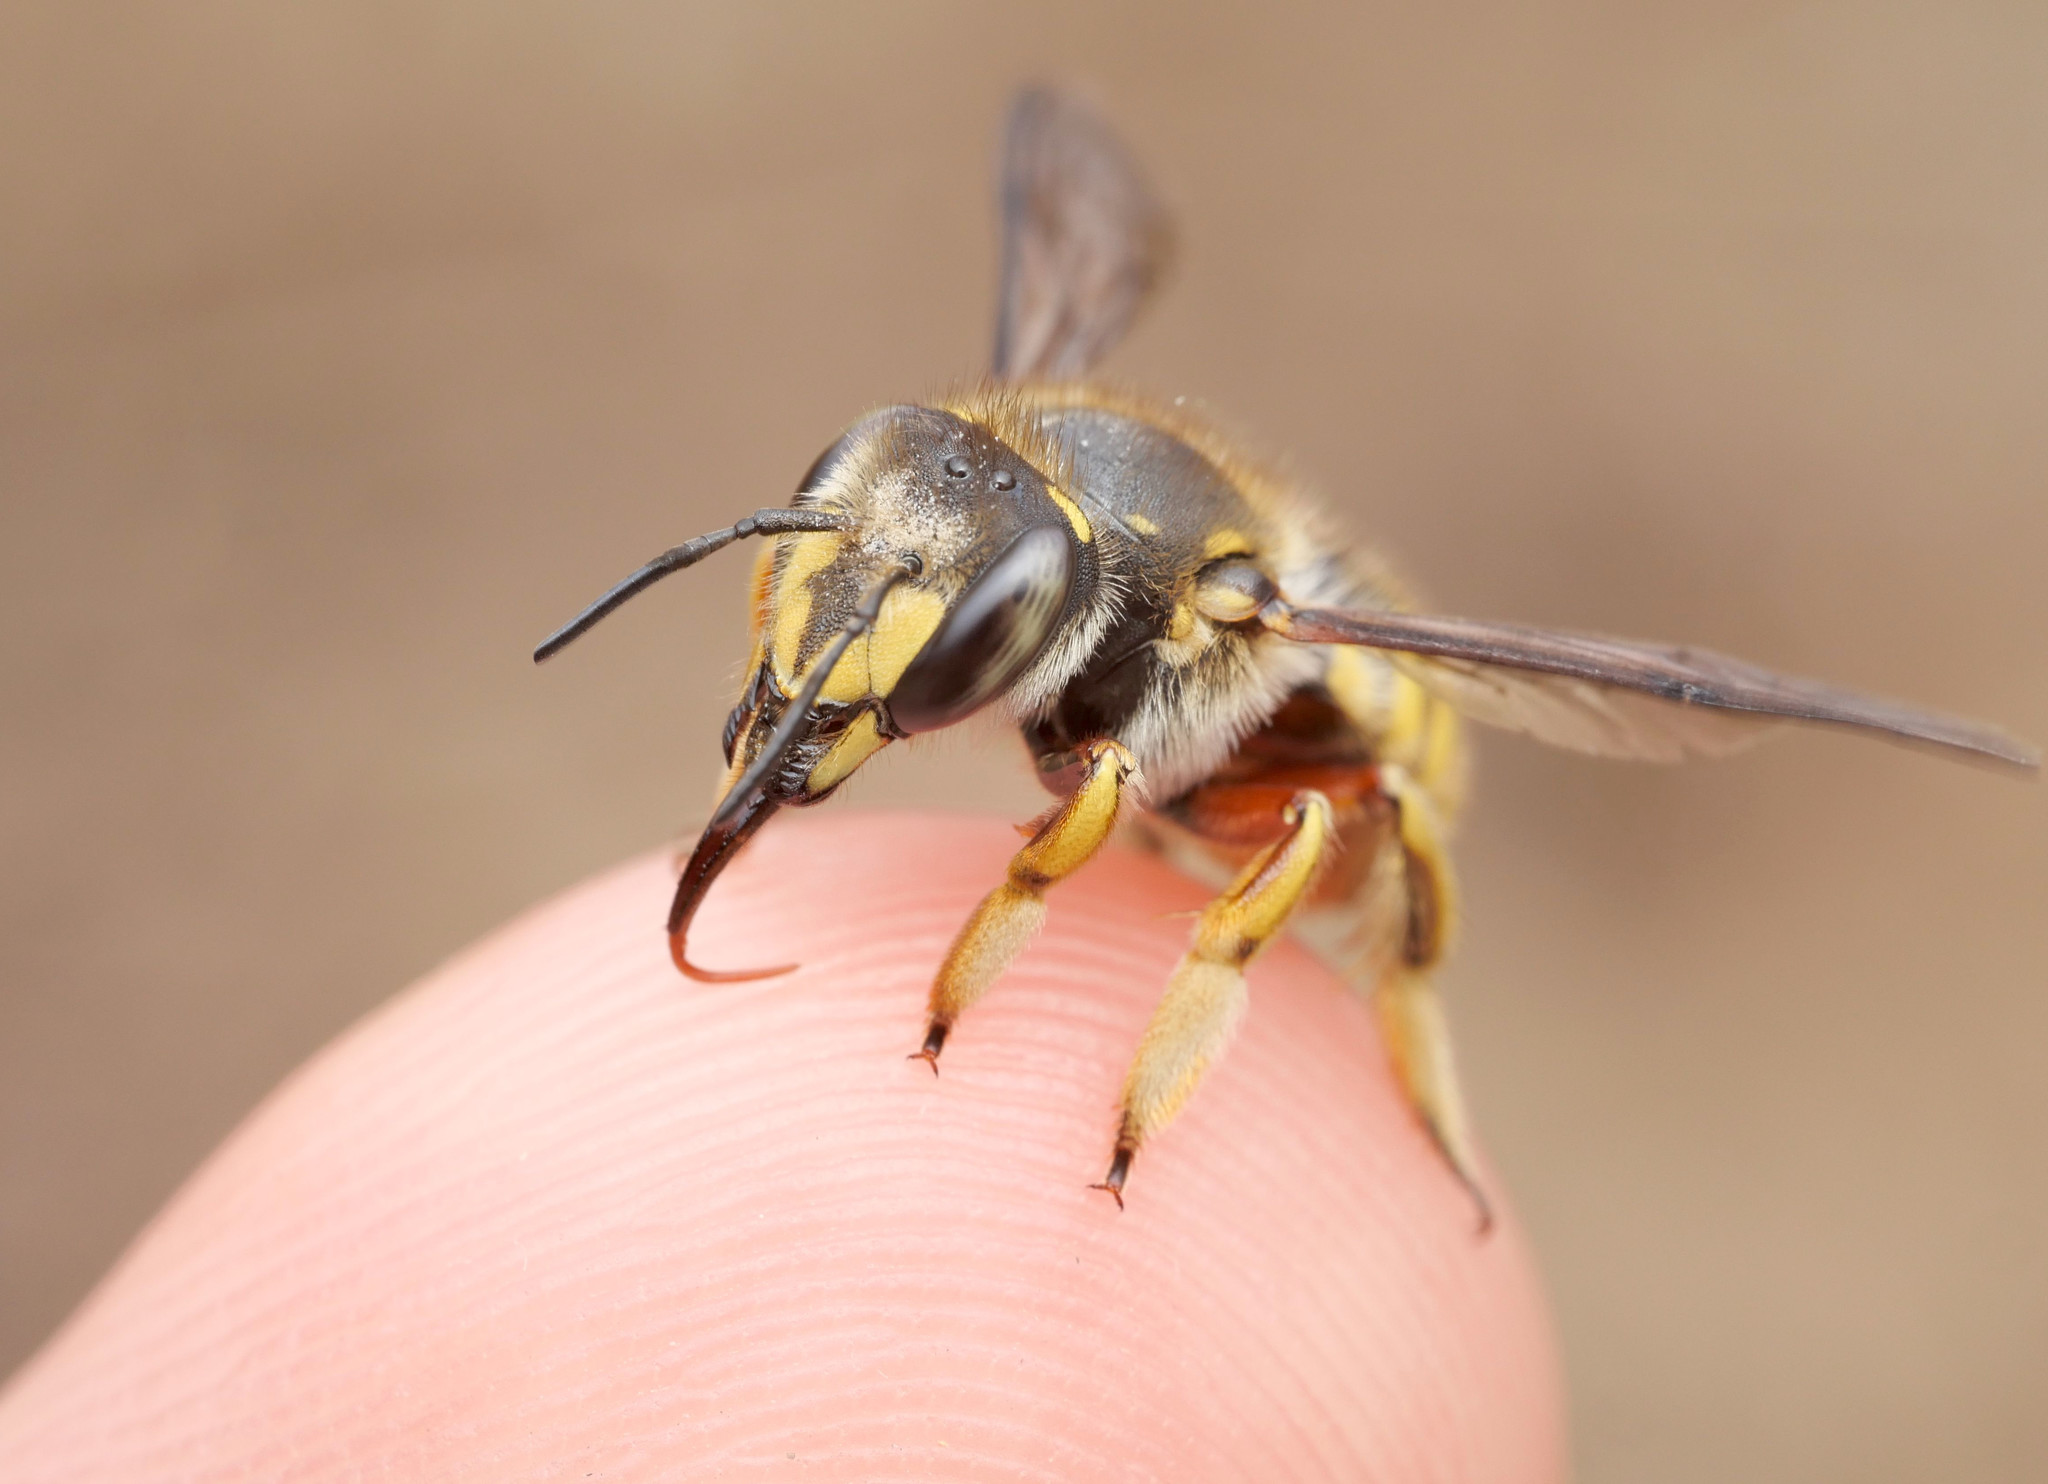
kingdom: Animalia
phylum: Arthropoda
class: Insecta
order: Hymenoptera
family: Megachilidae
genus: Anthidium
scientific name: Anthidium manicatum
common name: Wool carder bee
